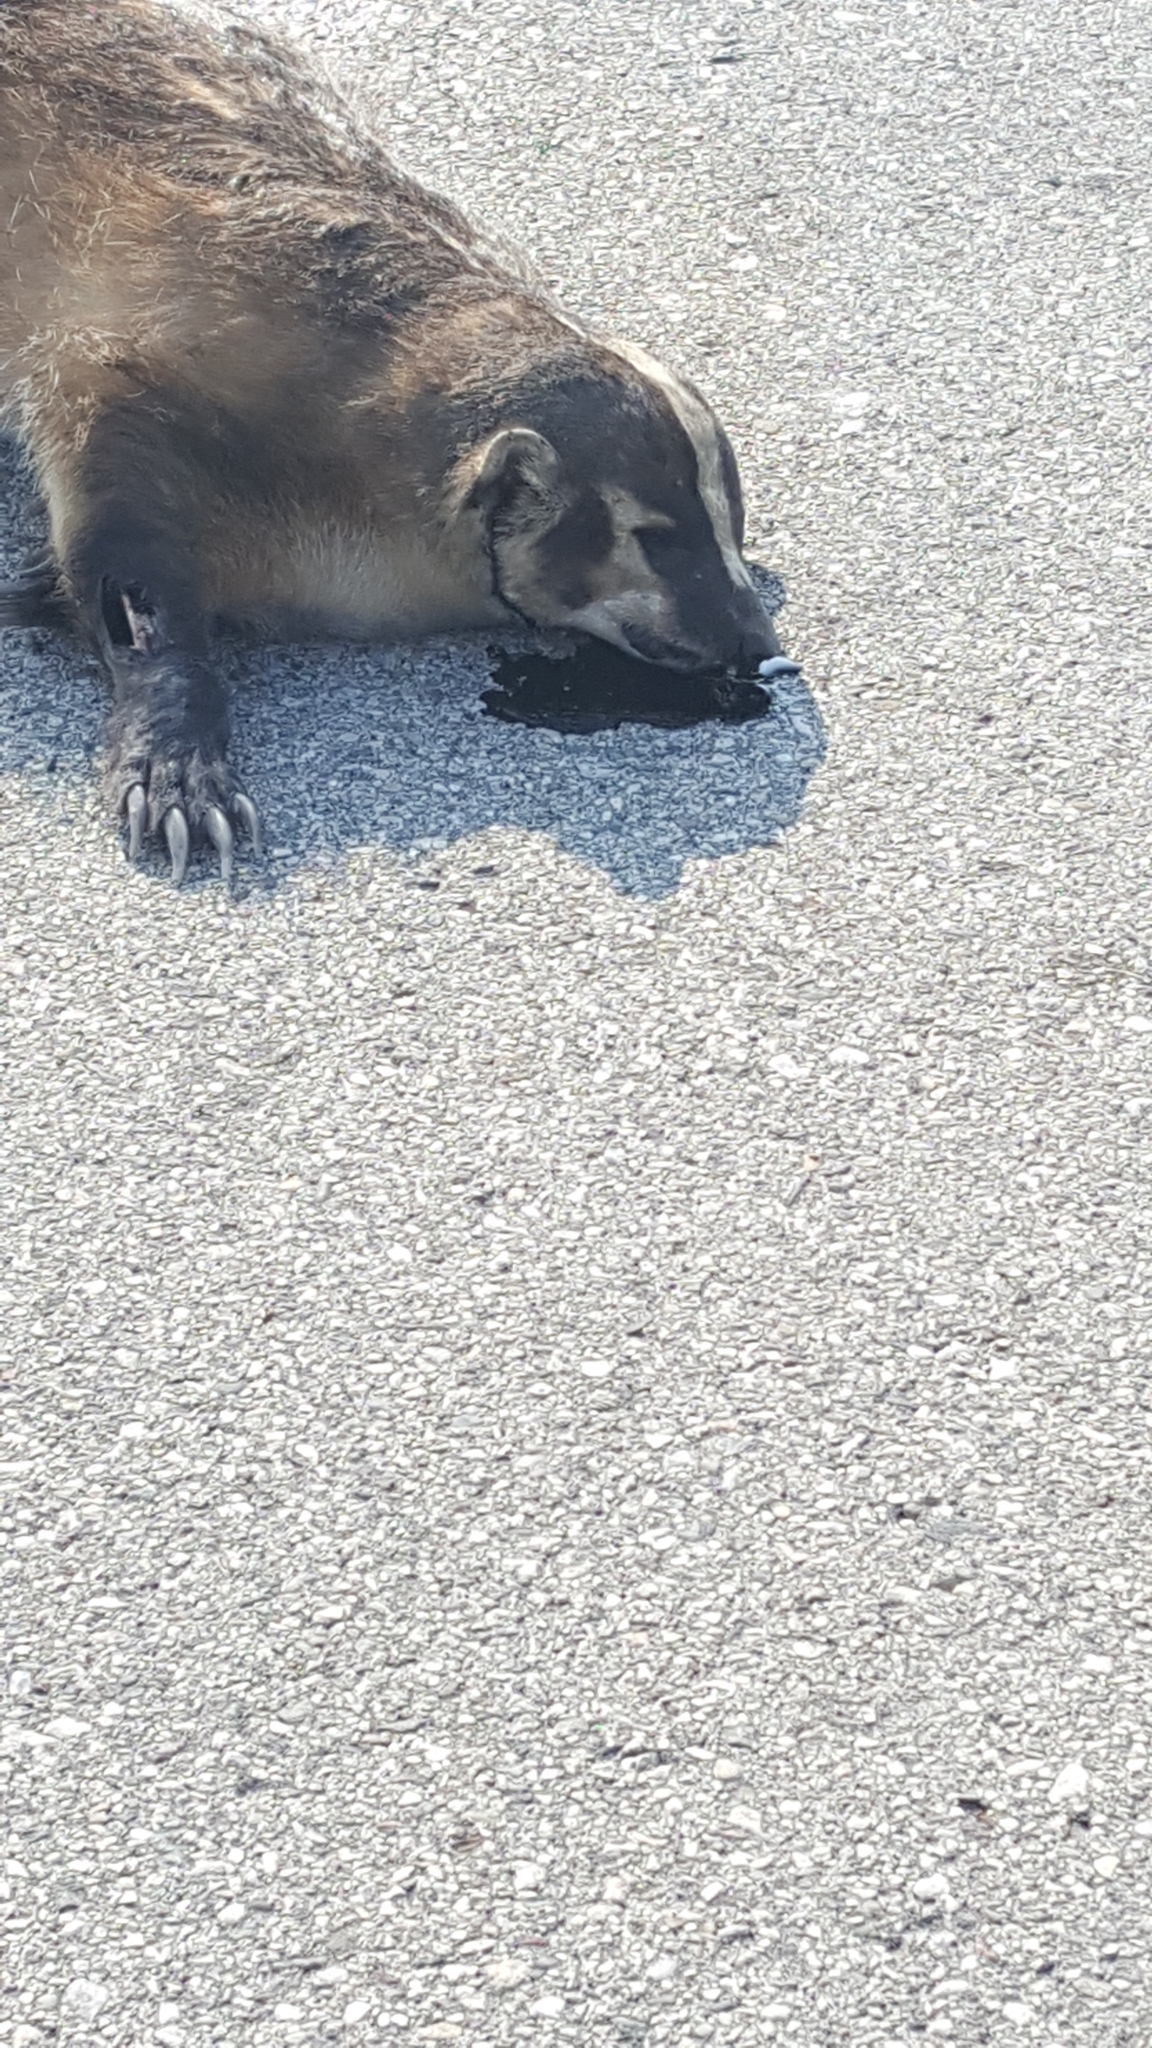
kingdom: Animalia
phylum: Chordata
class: Mammalia
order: Carnivora
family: Mustelidae
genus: Taxidea
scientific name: Taxidea taxus
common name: American badger
